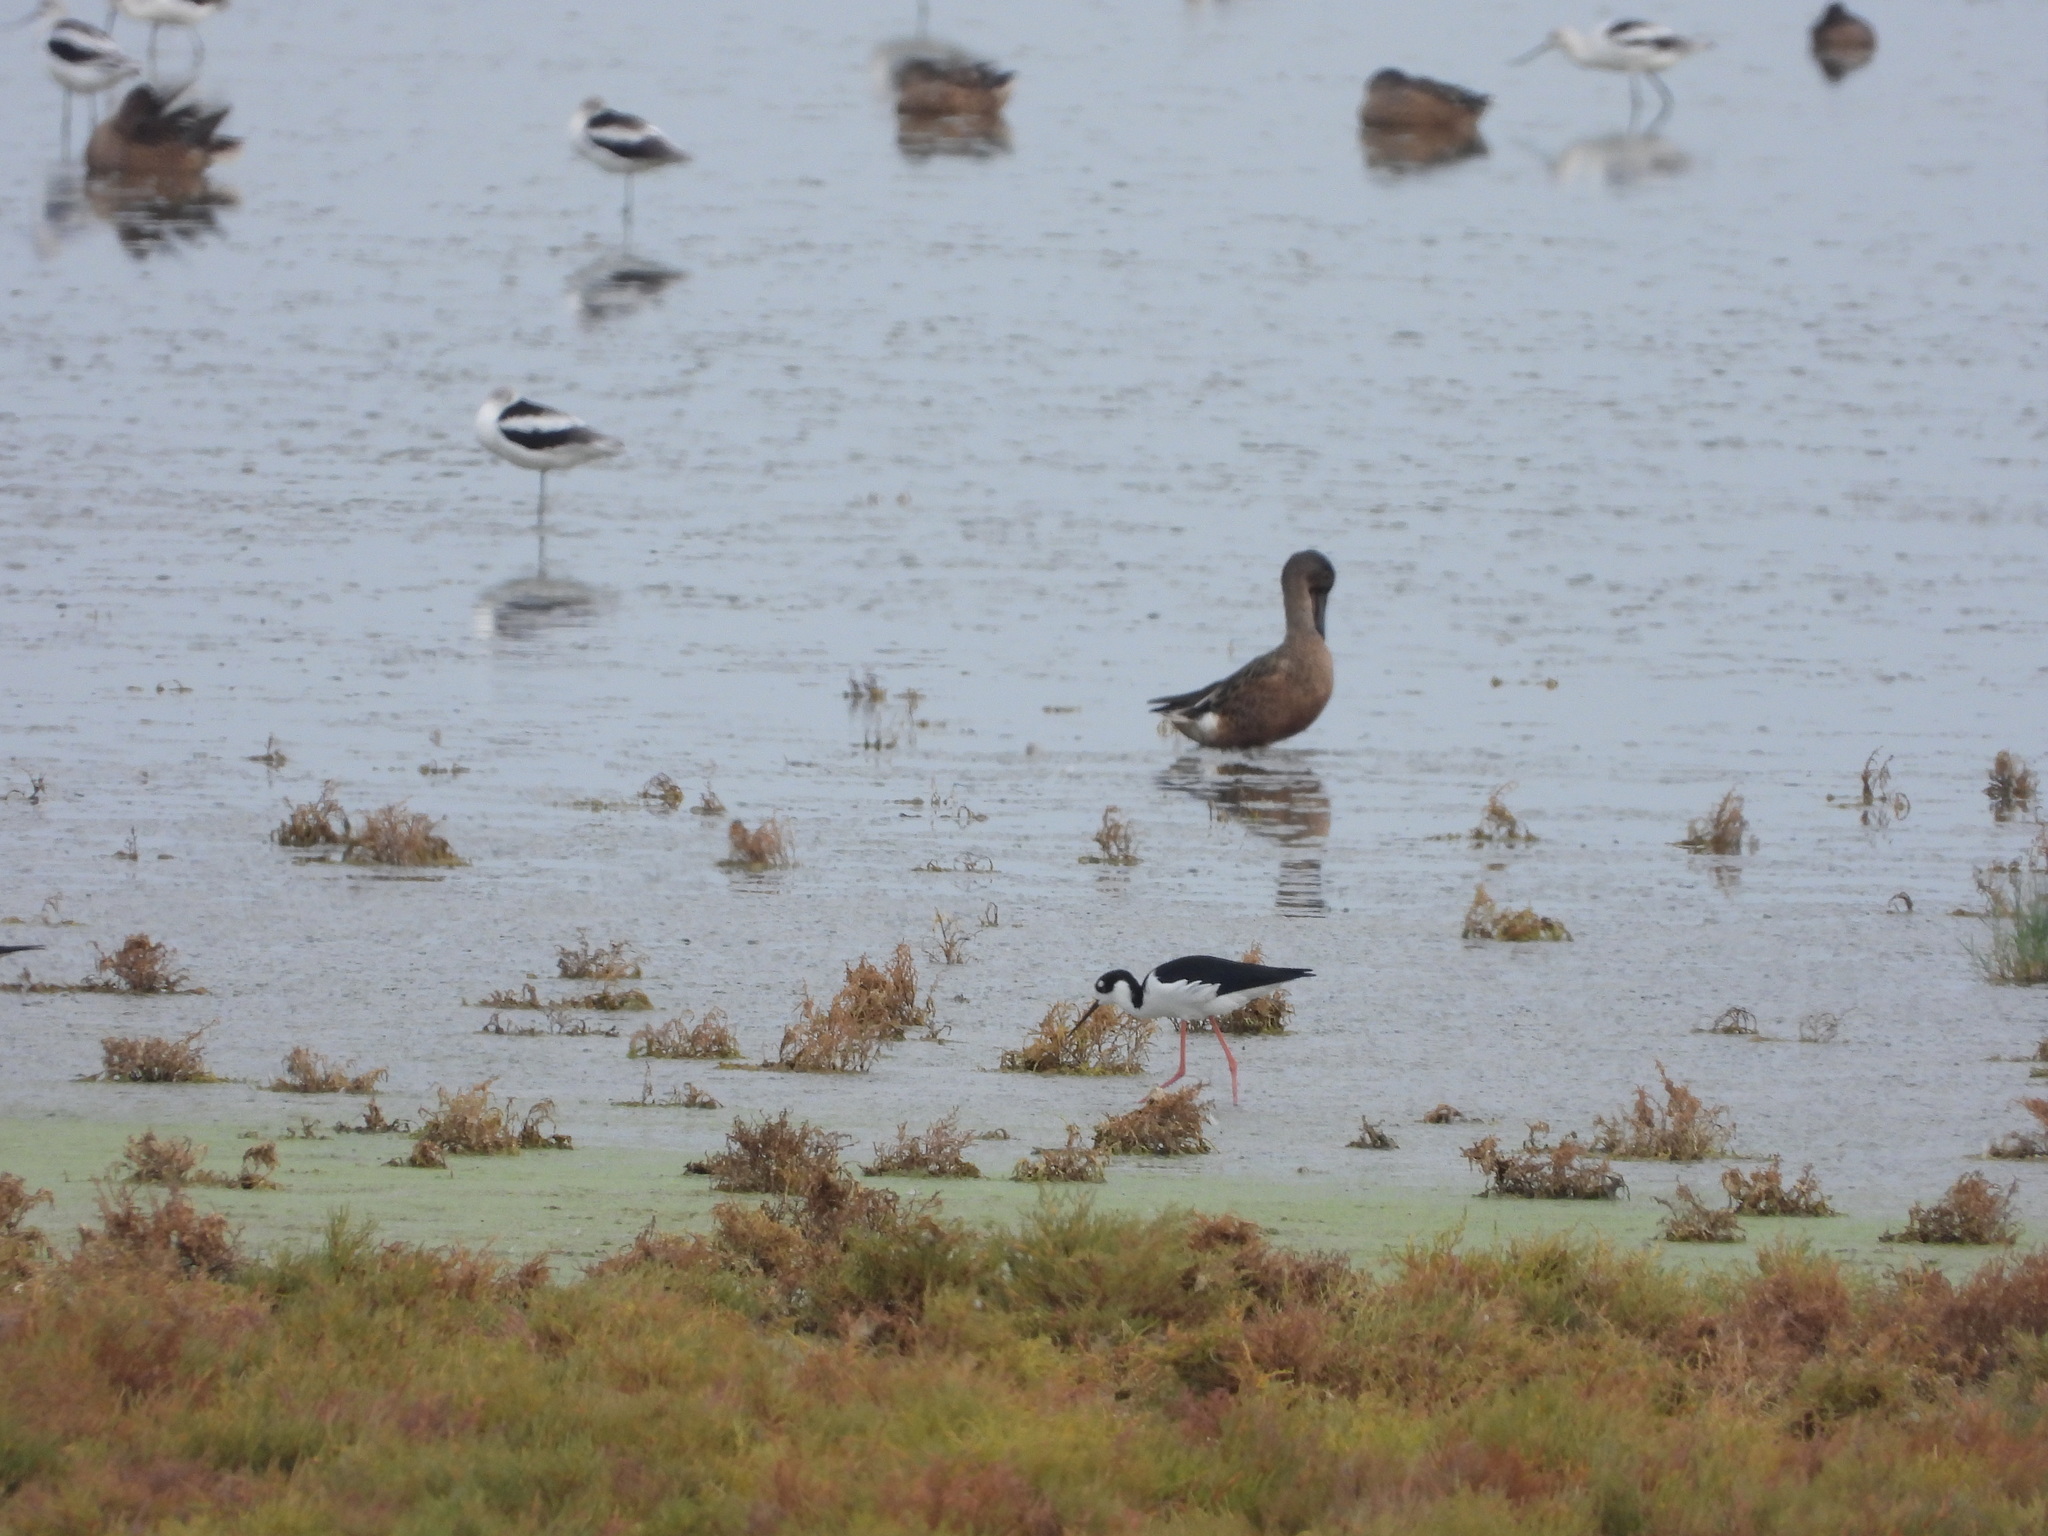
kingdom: Animalia
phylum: Chordata
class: Aves
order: Anseriformes
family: Anatidae
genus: Spatula
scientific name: Spatula clypeata
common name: Northern shoveler
